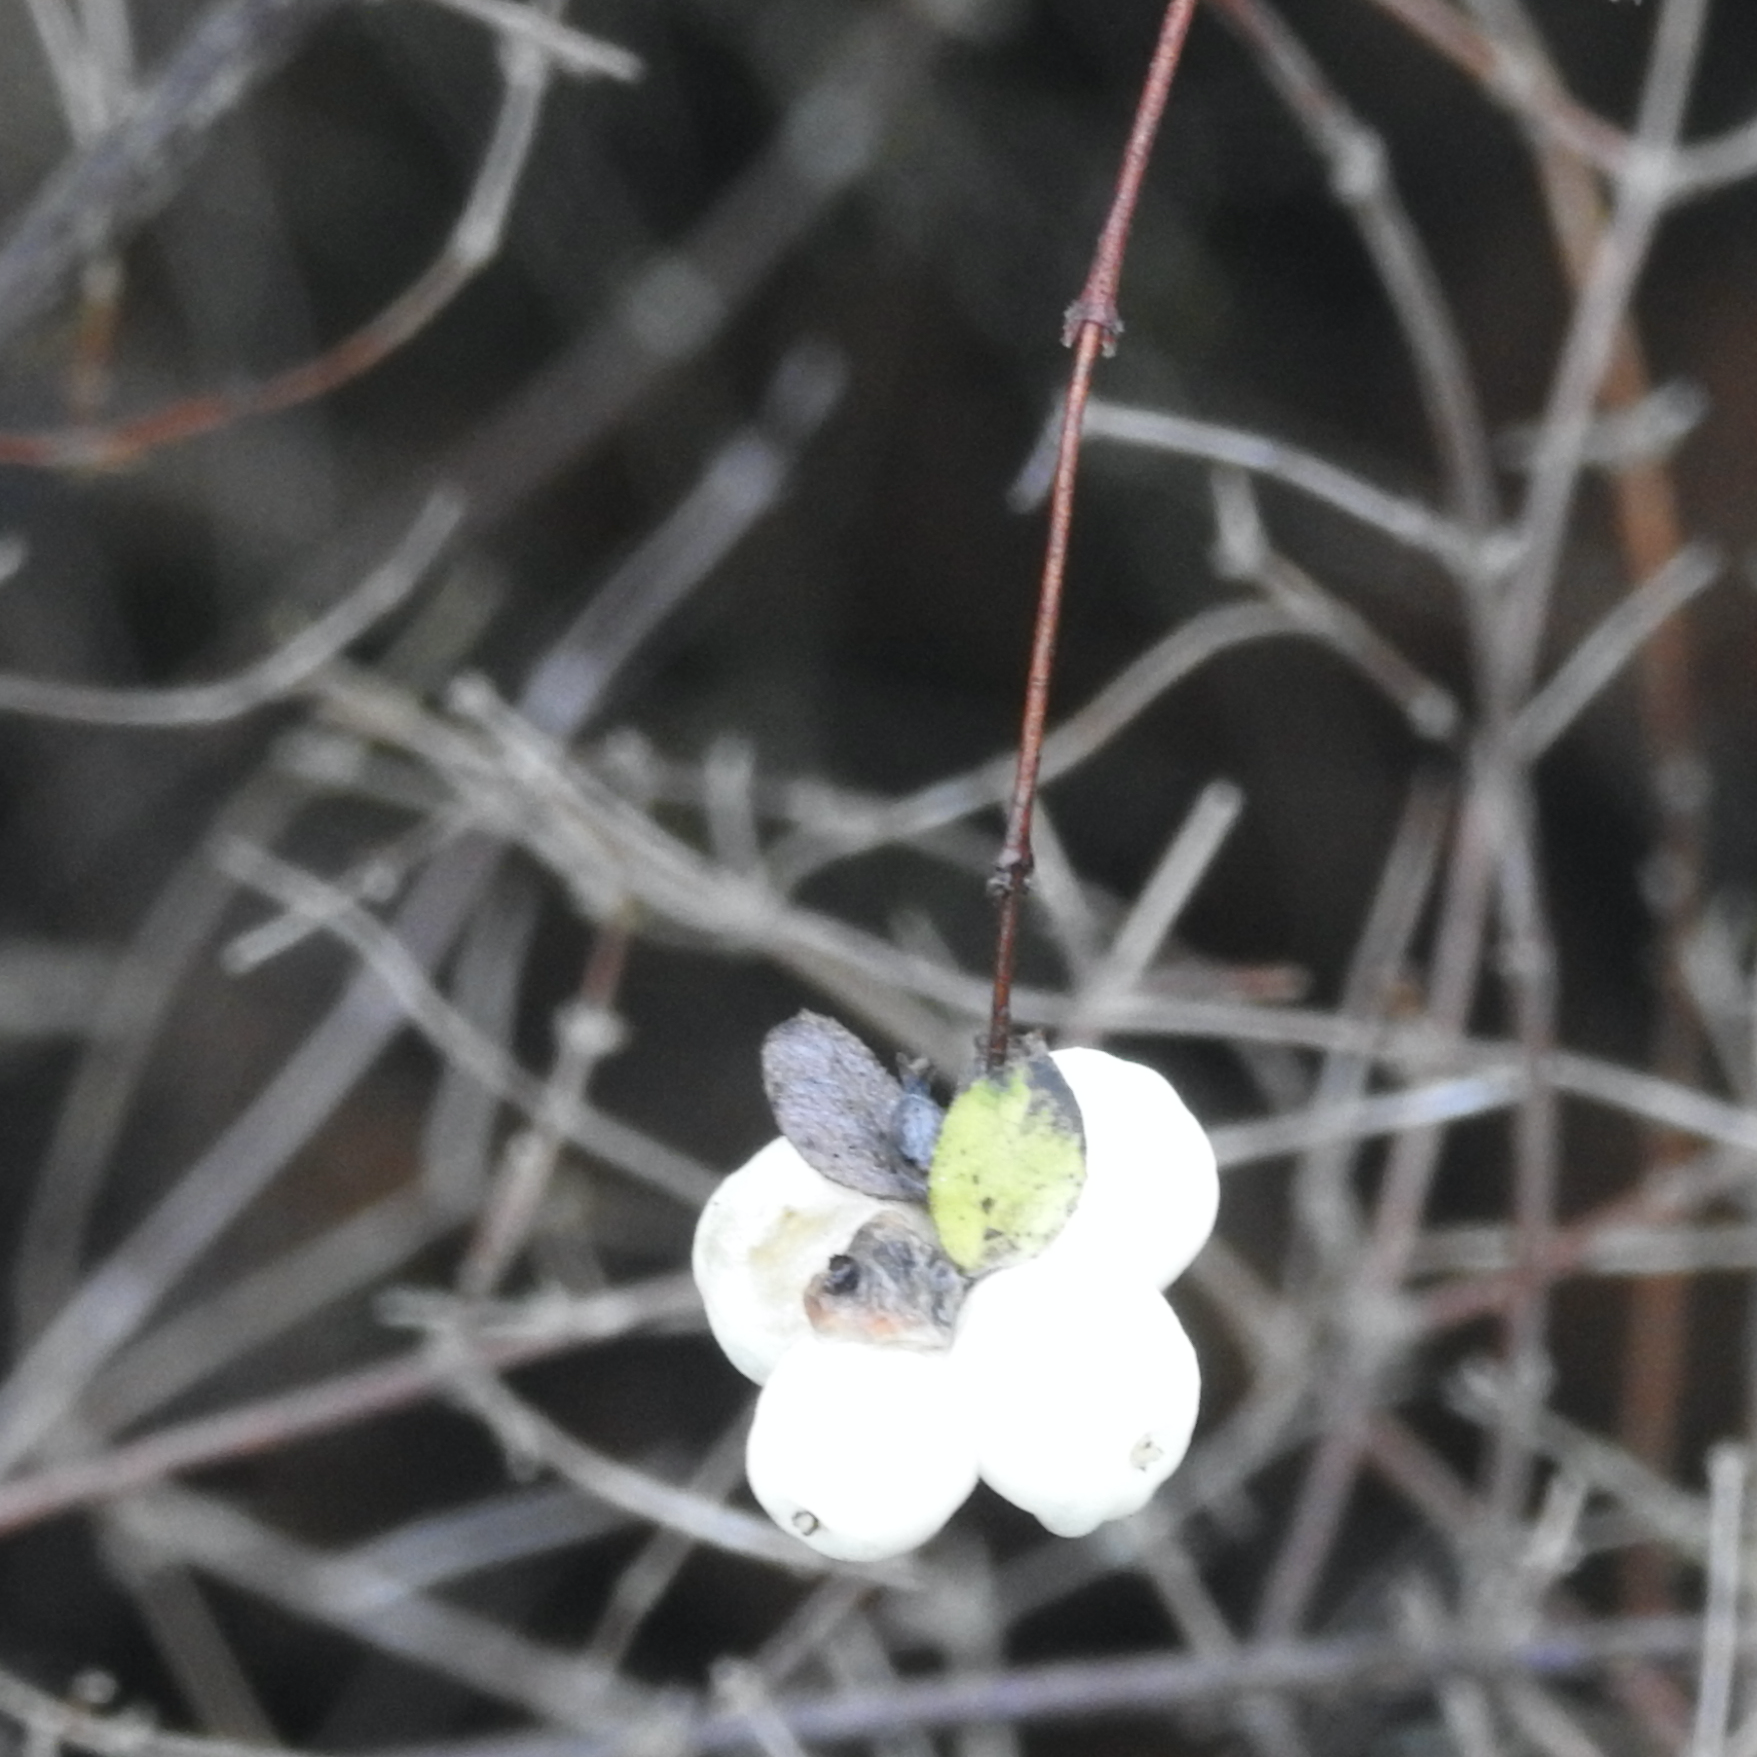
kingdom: Plantae
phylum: Tracheophyta
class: Magnoliopsida
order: Dipsacales
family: Caprifoliaceae
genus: Symphoricarpos
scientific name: Symphoricarpos albus
